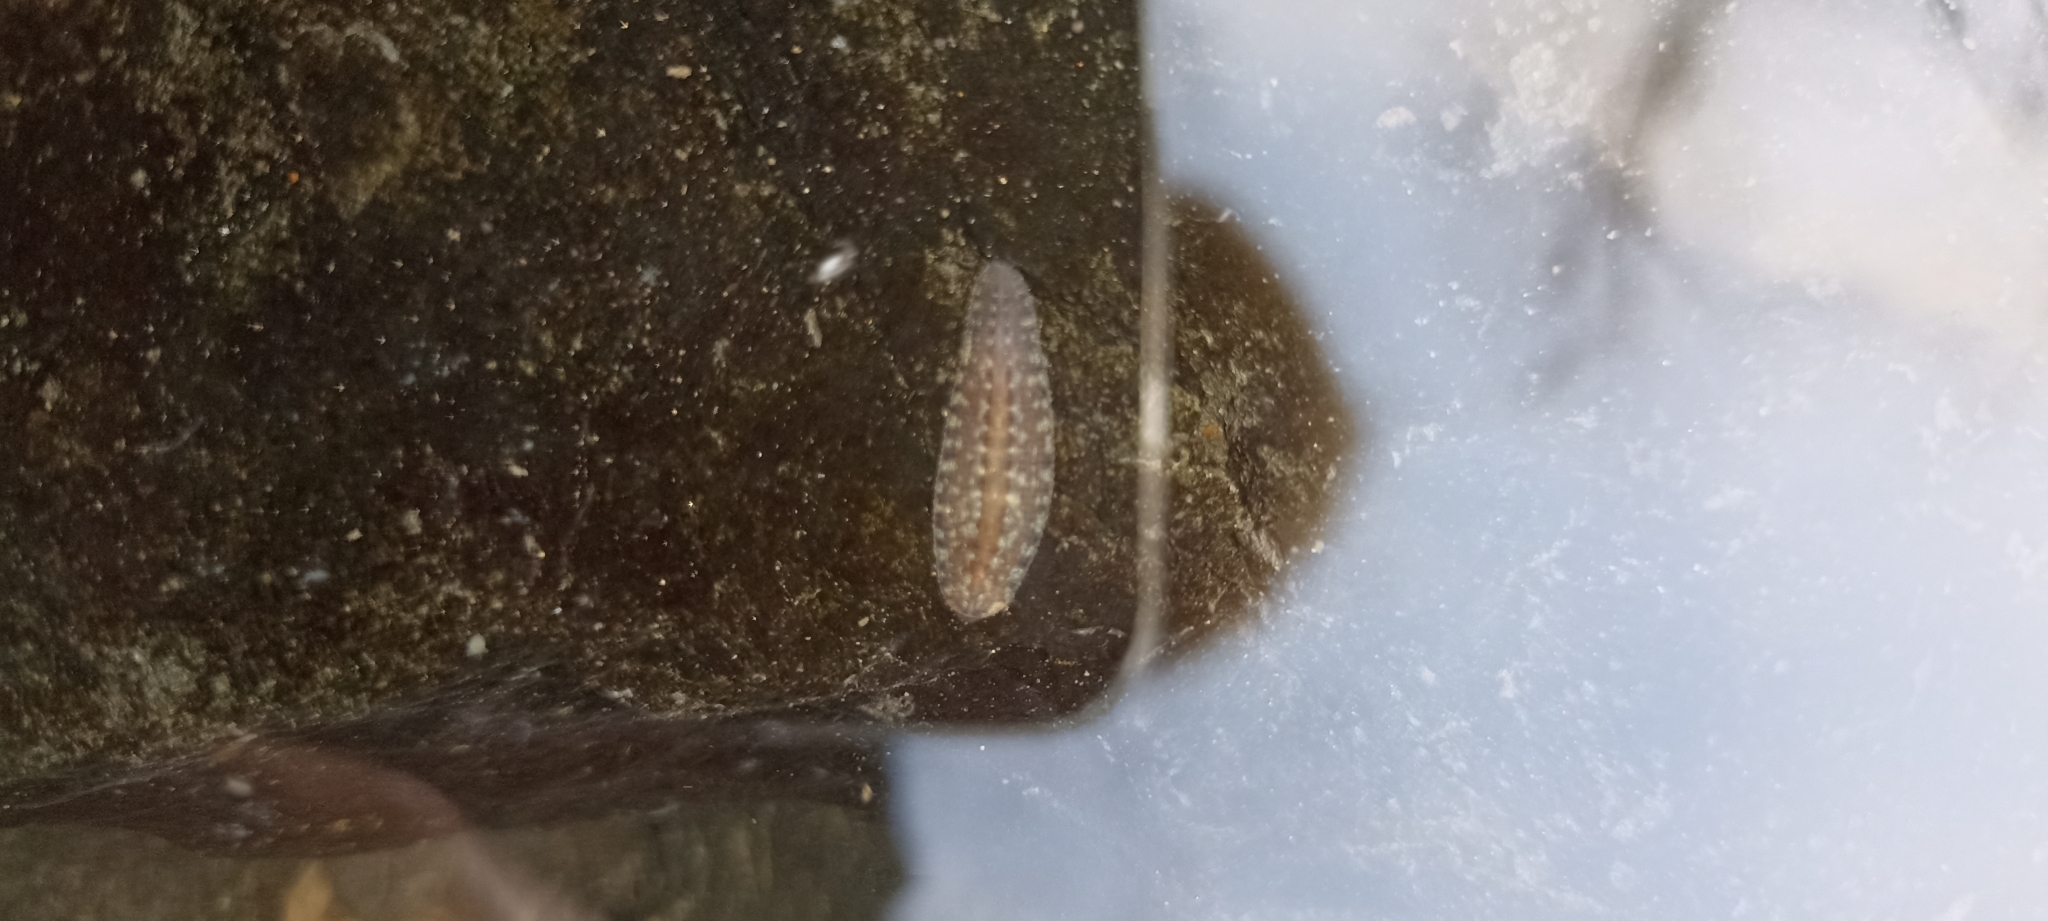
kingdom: Animalia
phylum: Annelida
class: Clitellata
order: Rhynchobdellida
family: Glossiphoniidae
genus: Glossiphonia
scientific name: Glossiphonia complanata
